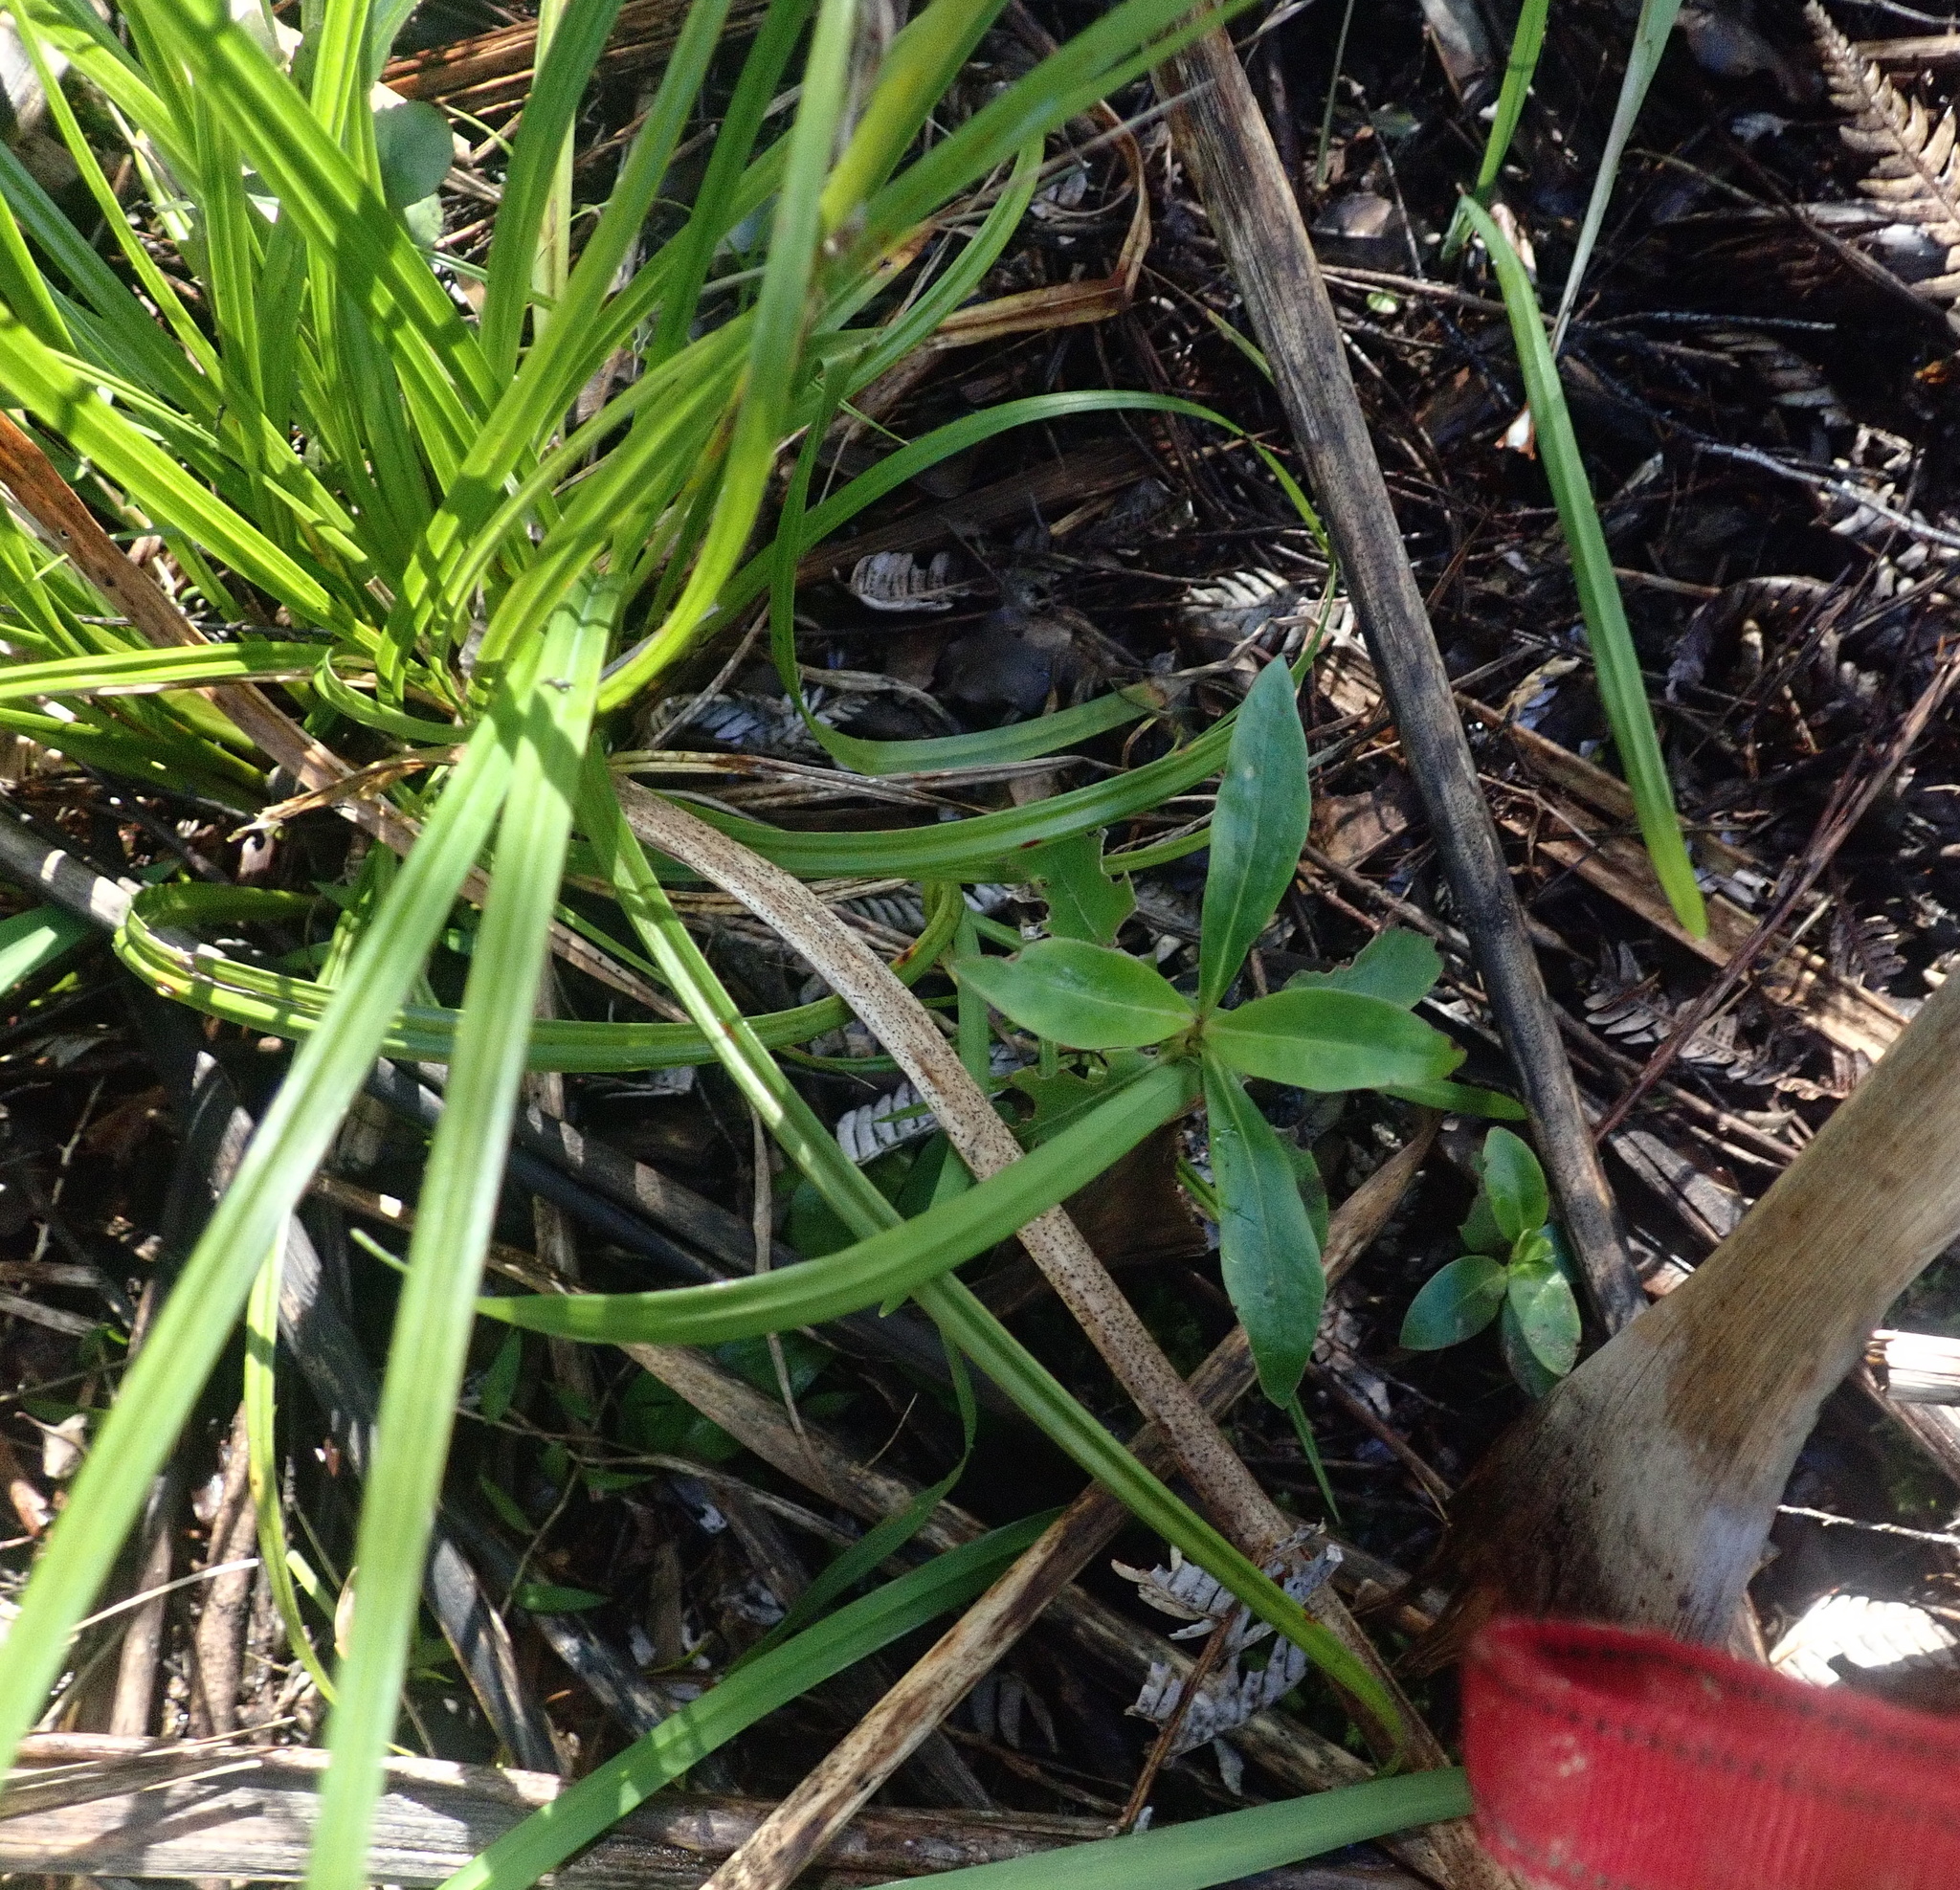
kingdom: Plantae
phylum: Tracheophyta
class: Magnoliopsida
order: Gentianales
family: Rubiaceae
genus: Coprosma
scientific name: Coprosma robusta
